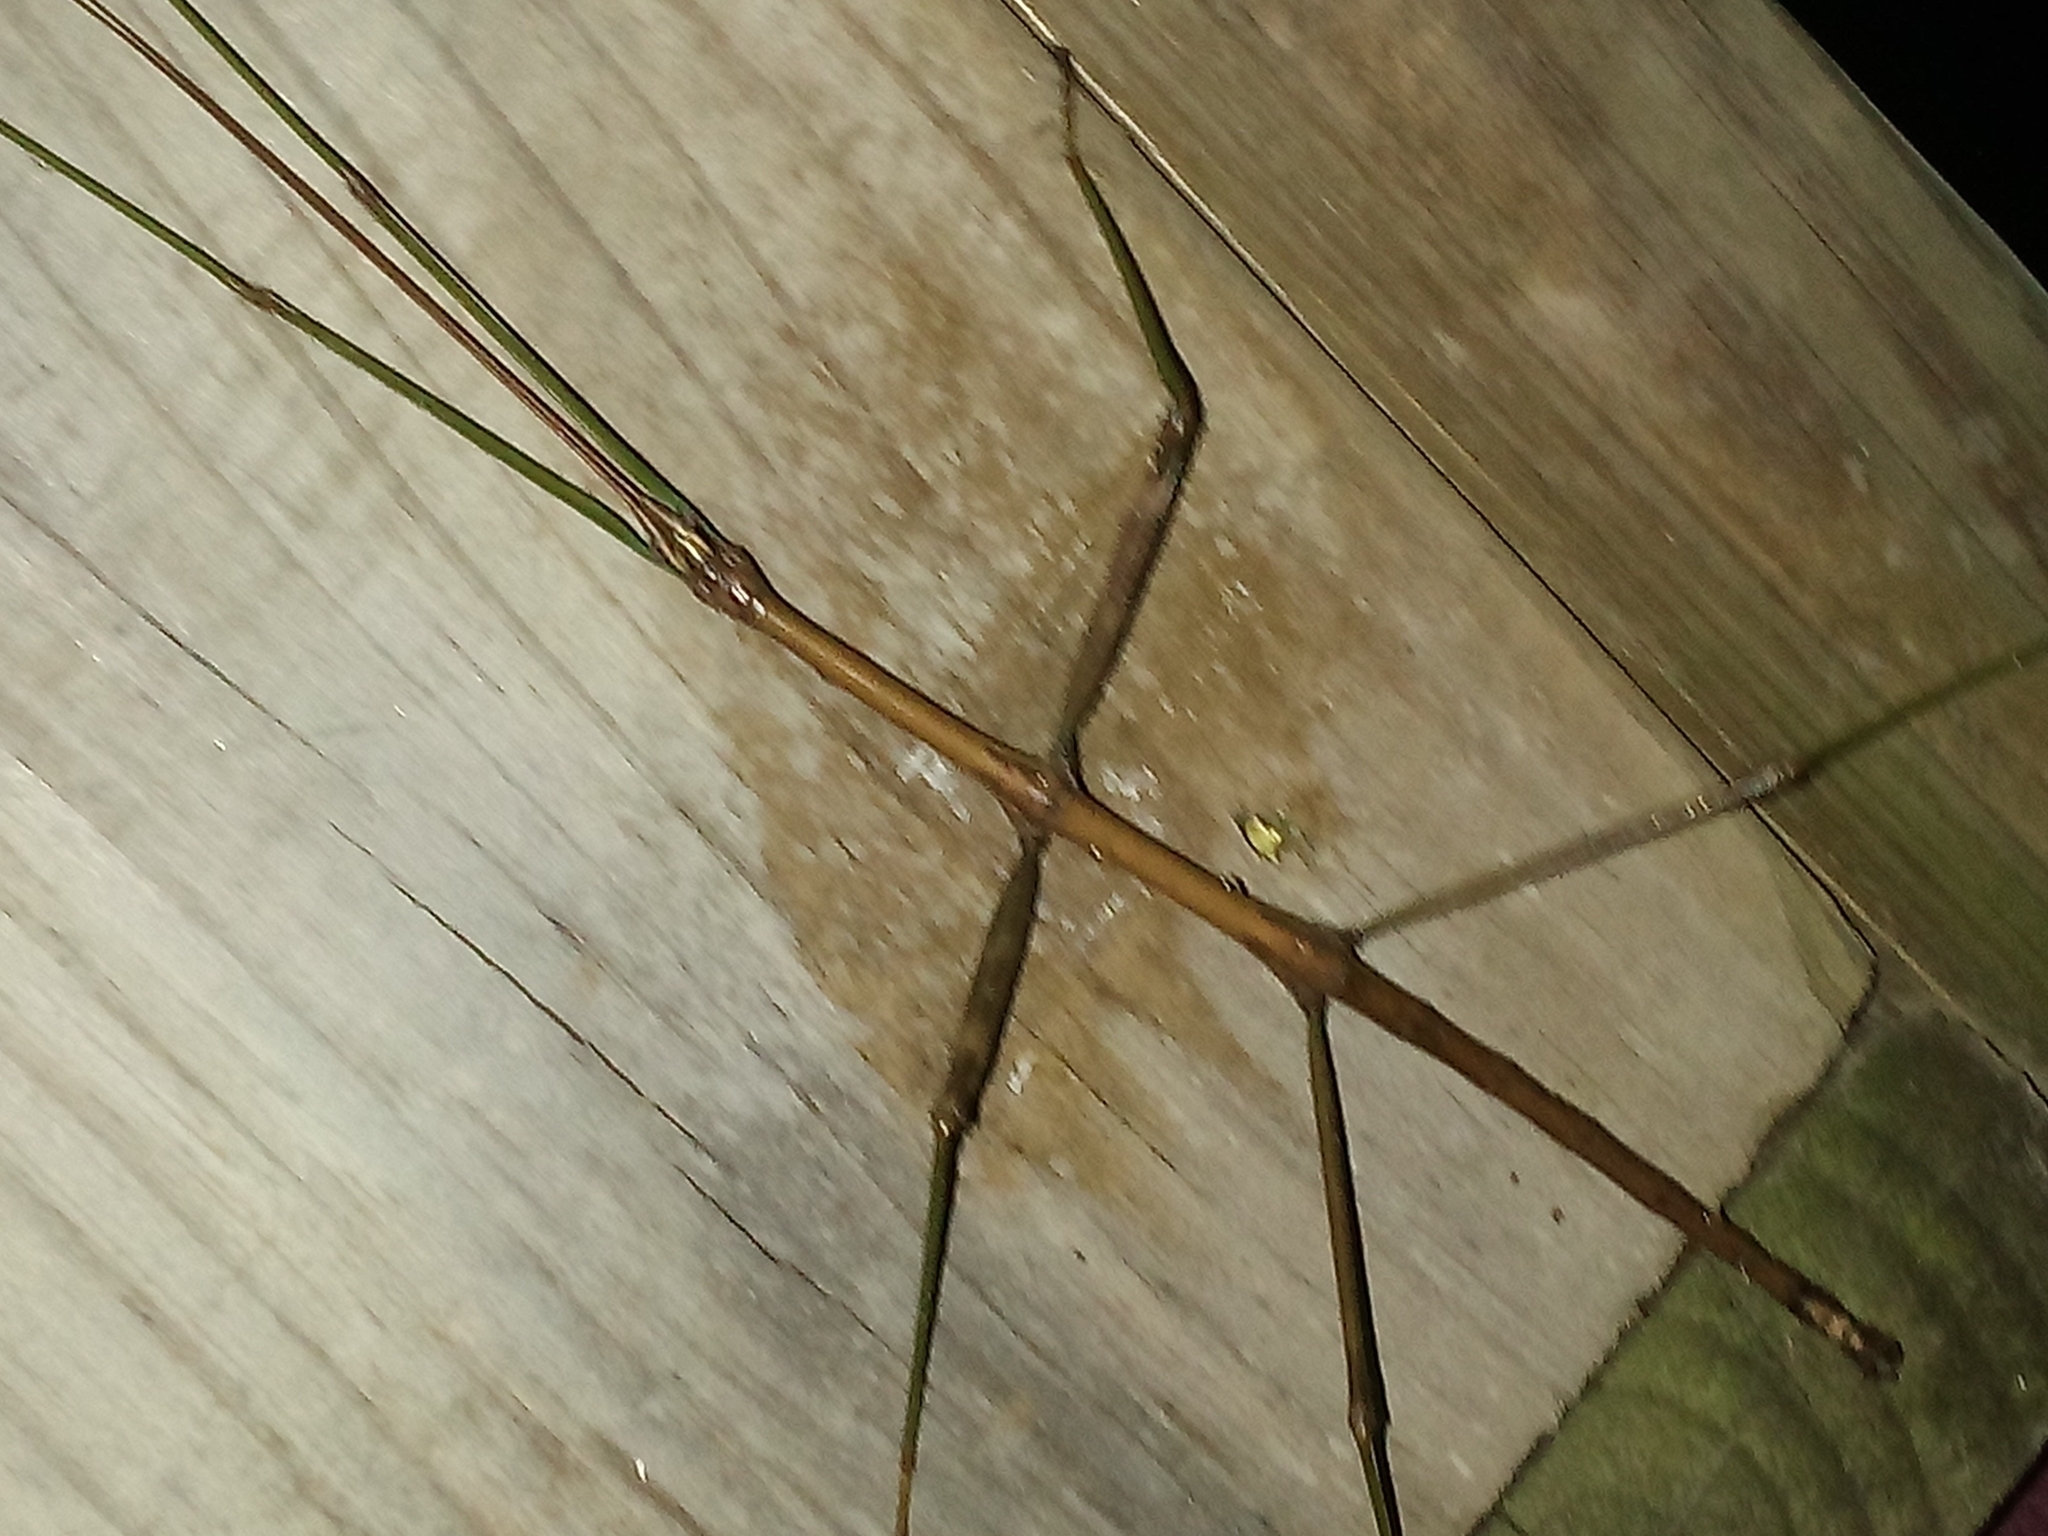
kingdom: Animalia
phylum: Arthropoda
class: Insecta
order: Phasmida
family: Diapheromeridae
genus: Diapheromera
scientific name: Diapheromera femorata
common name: Common american walkingstick
